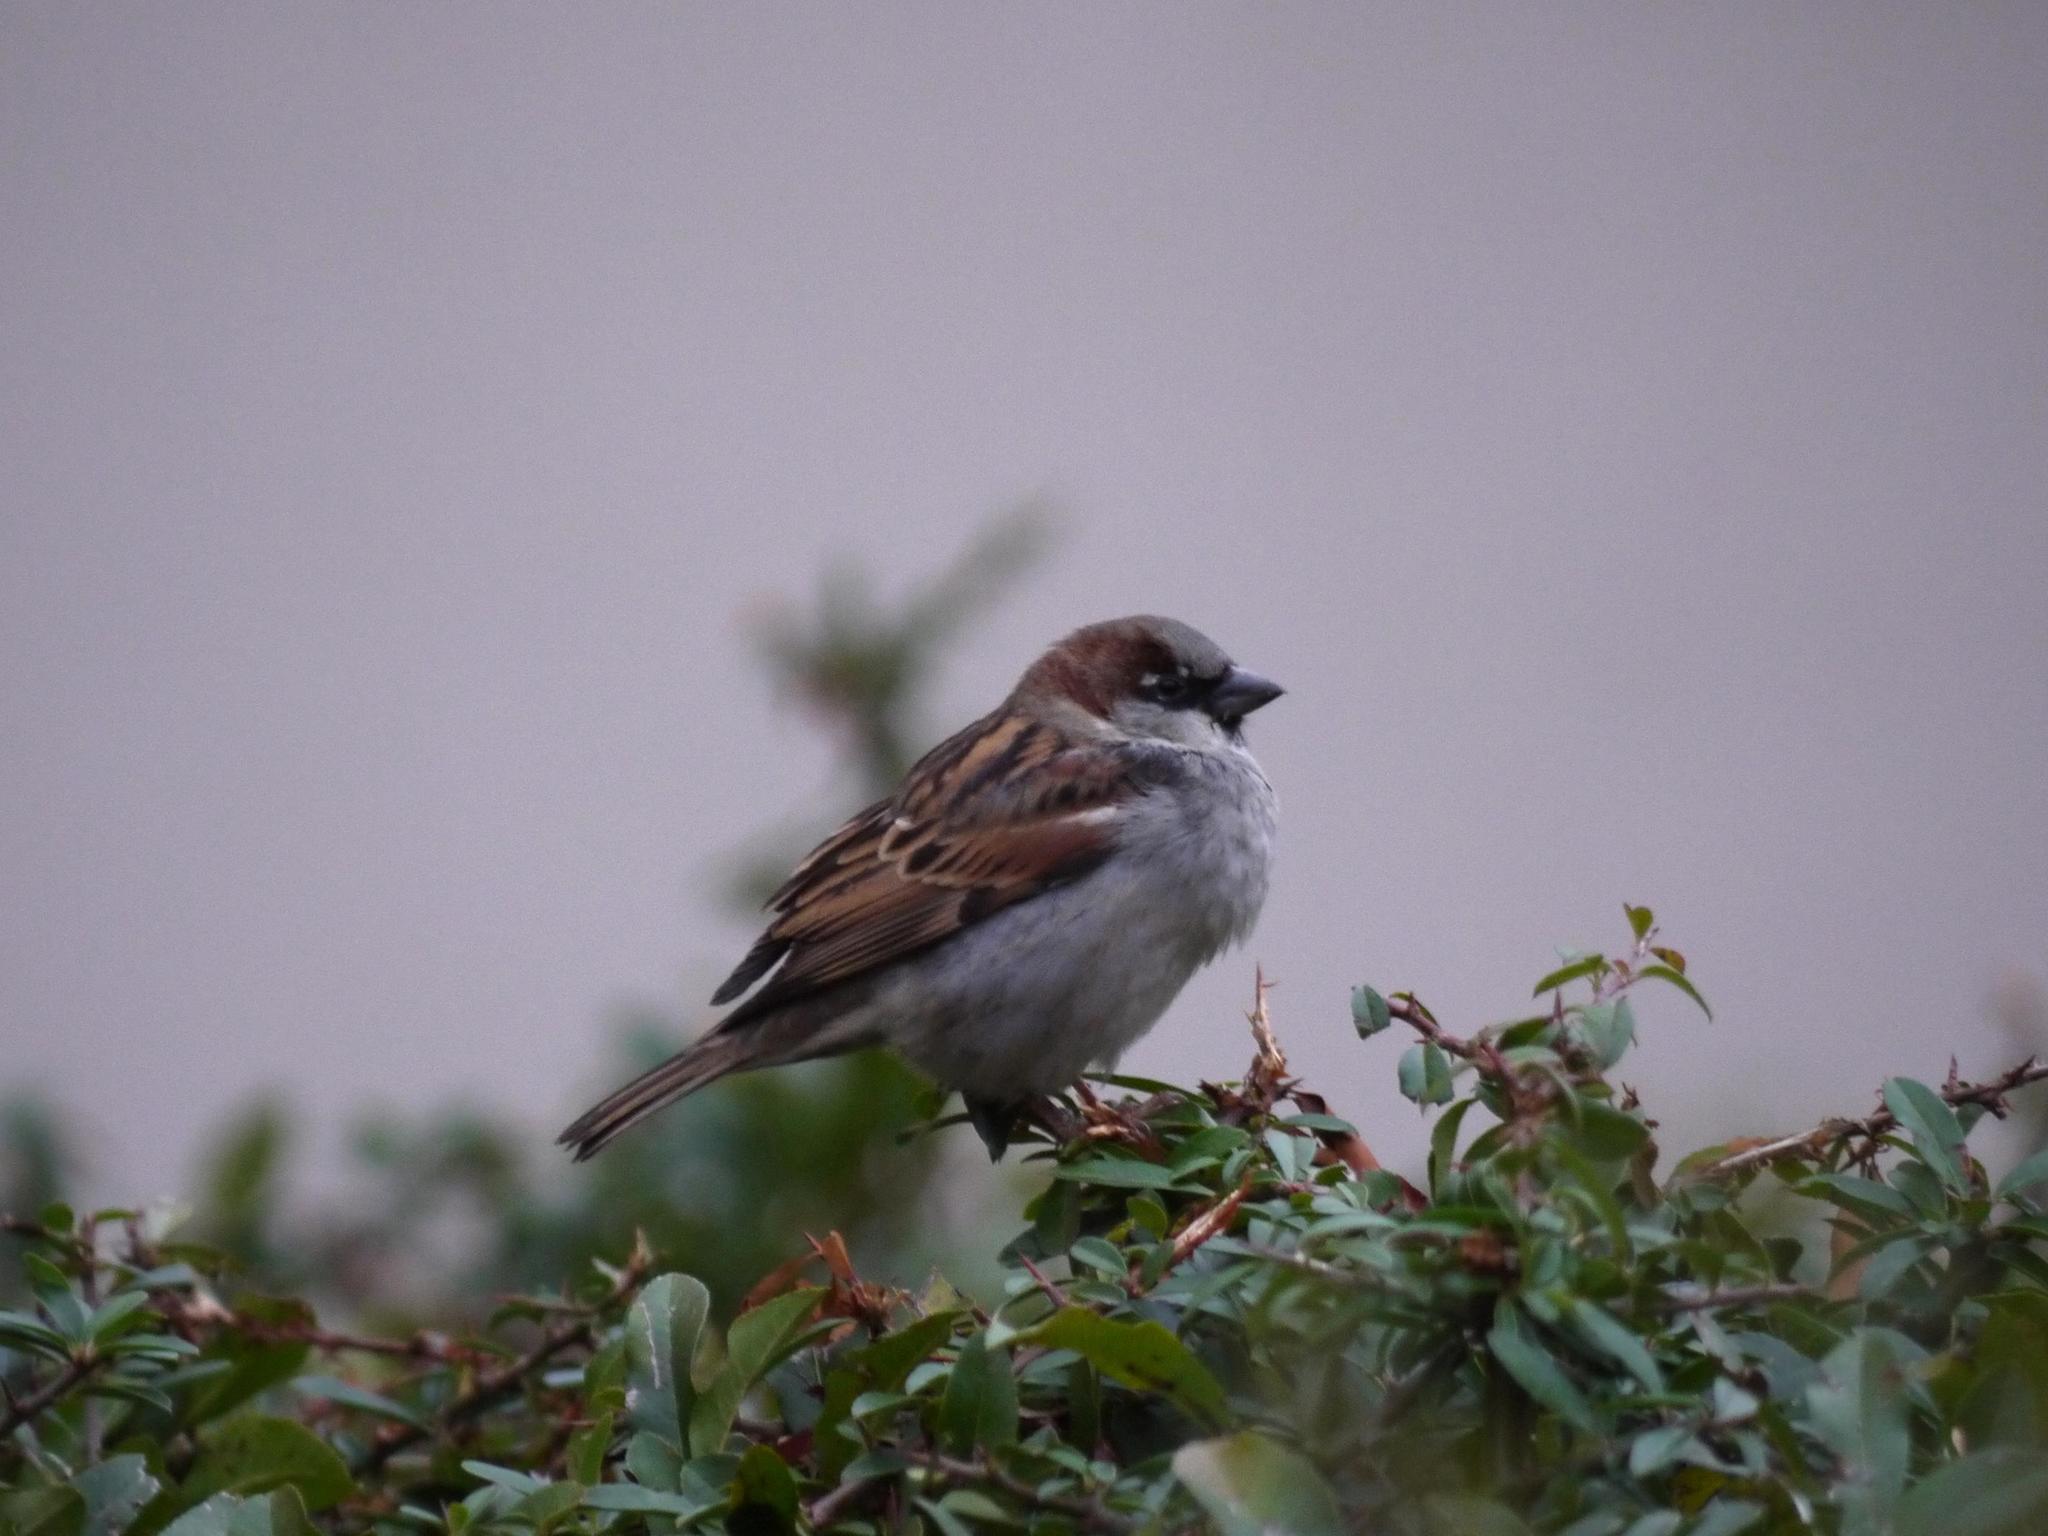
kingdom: Animalia
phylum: Chordata
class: Aves
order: Passeriformes
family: Passeridae
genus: Passer
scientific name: Passer domesticus
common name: House sparrow
